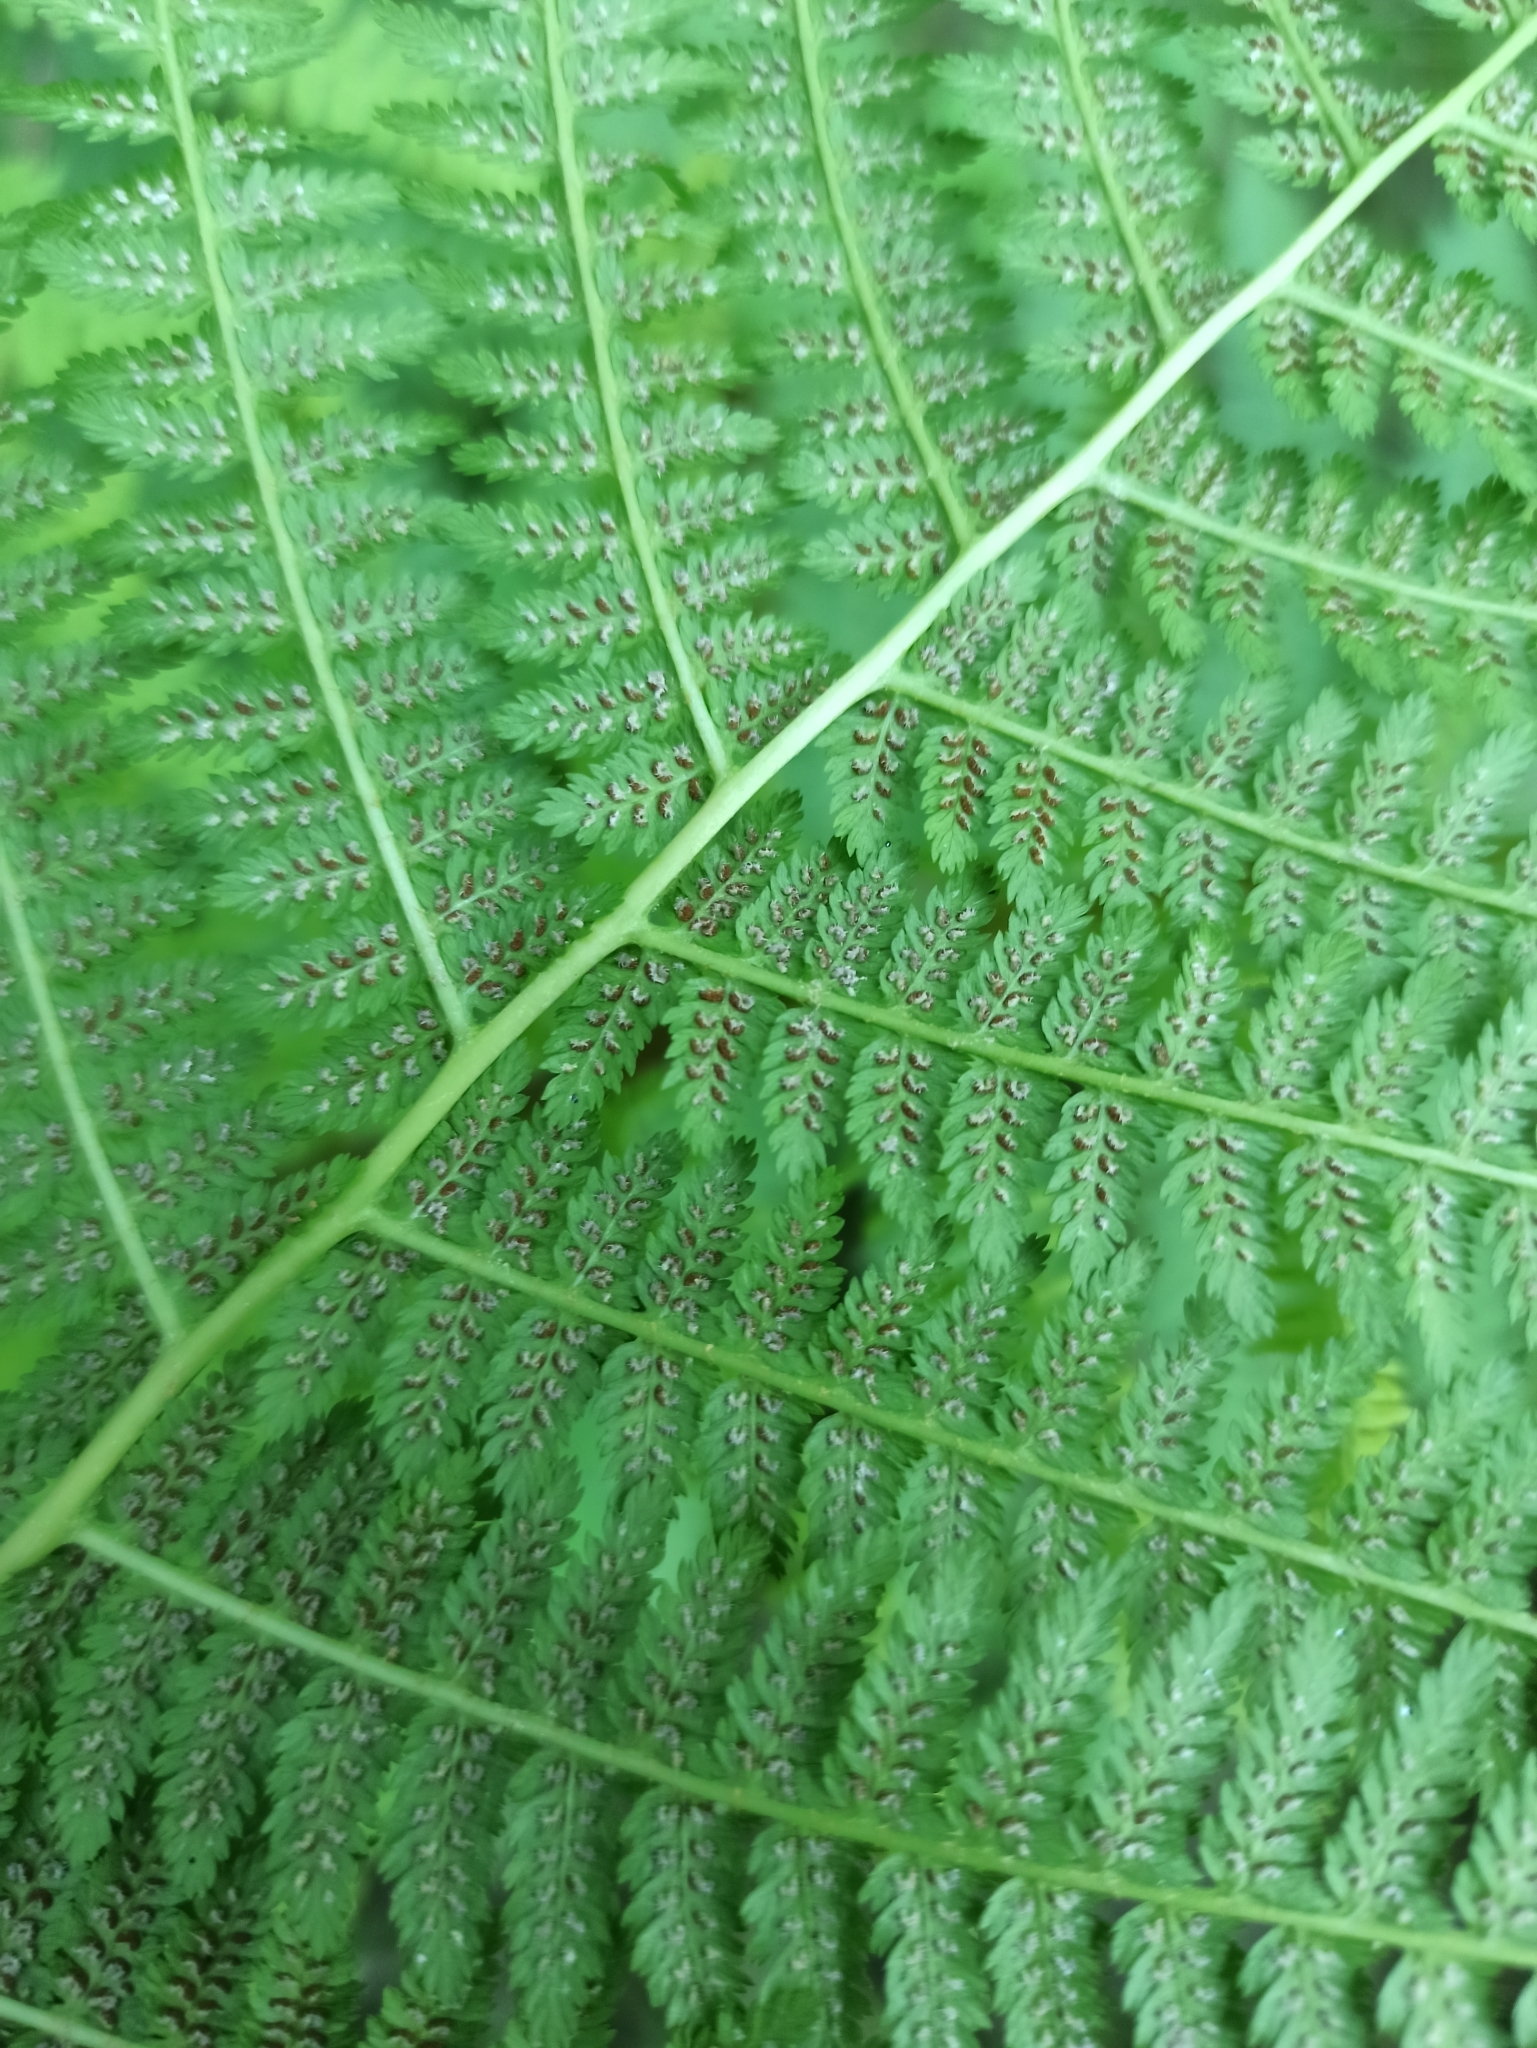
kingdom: Plantae
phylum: Tracheophyta
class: Polypodiopsida
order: Polypodiales
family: Athyriaceae
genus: Athyrium
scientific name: Athyrium filix-femina
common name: Lady fern
